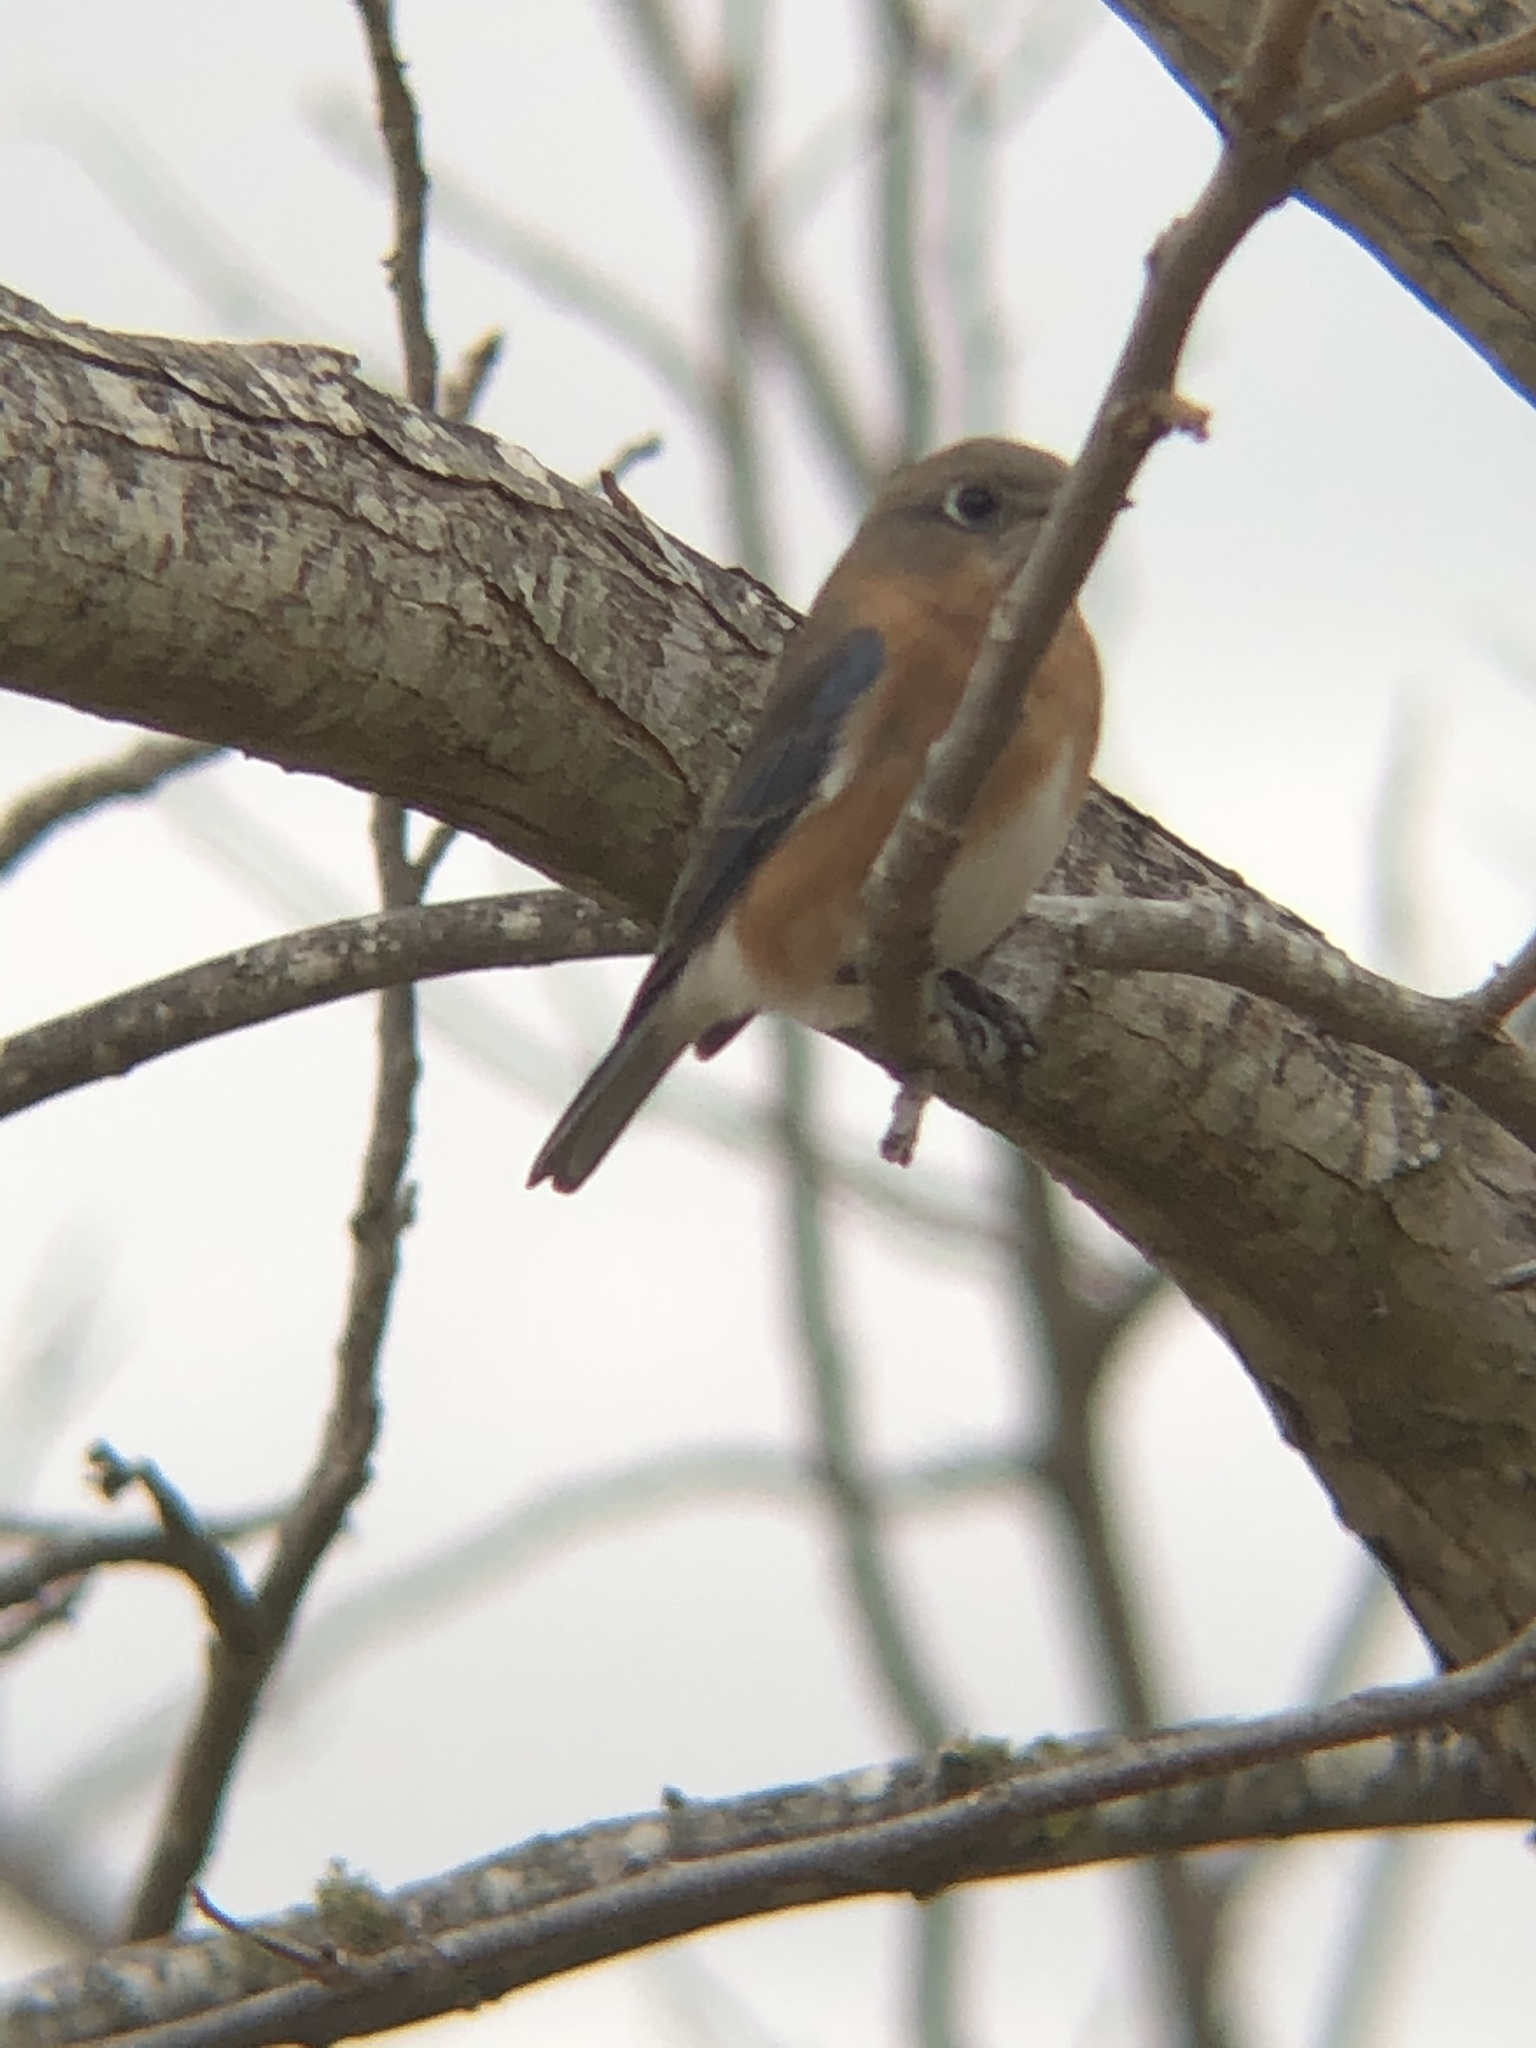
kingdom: Animalia
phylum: Chordata
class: Aves
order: Passeriformes
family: Turdidae
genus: Sialia
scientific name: Sialia sialis
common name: Eastern bluebird
